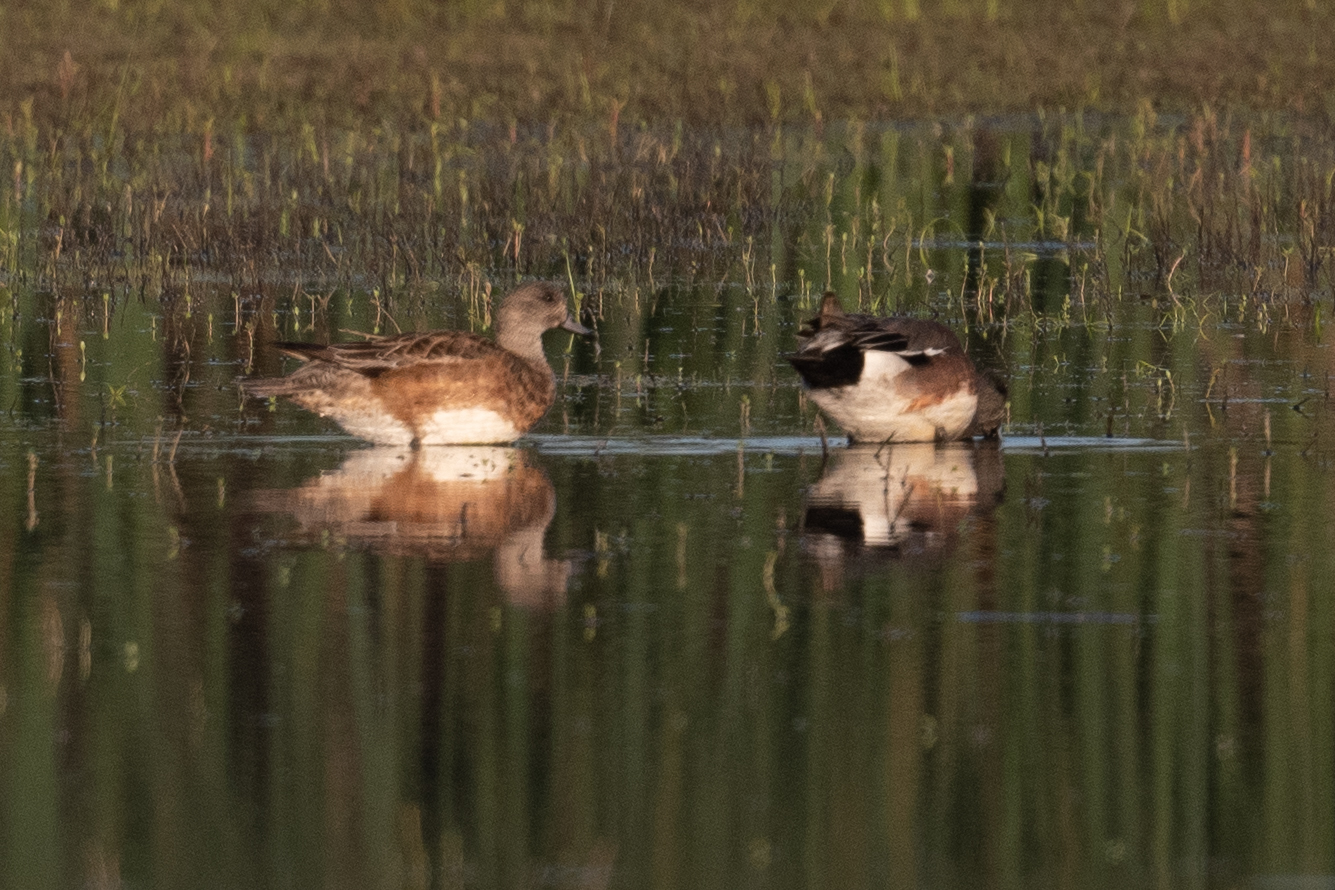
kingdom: Animalia
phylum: Chordata
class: Aves
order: Anseriformes
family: Anatidae
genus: Mareca
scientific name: Mareca americana
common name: American wigeon
